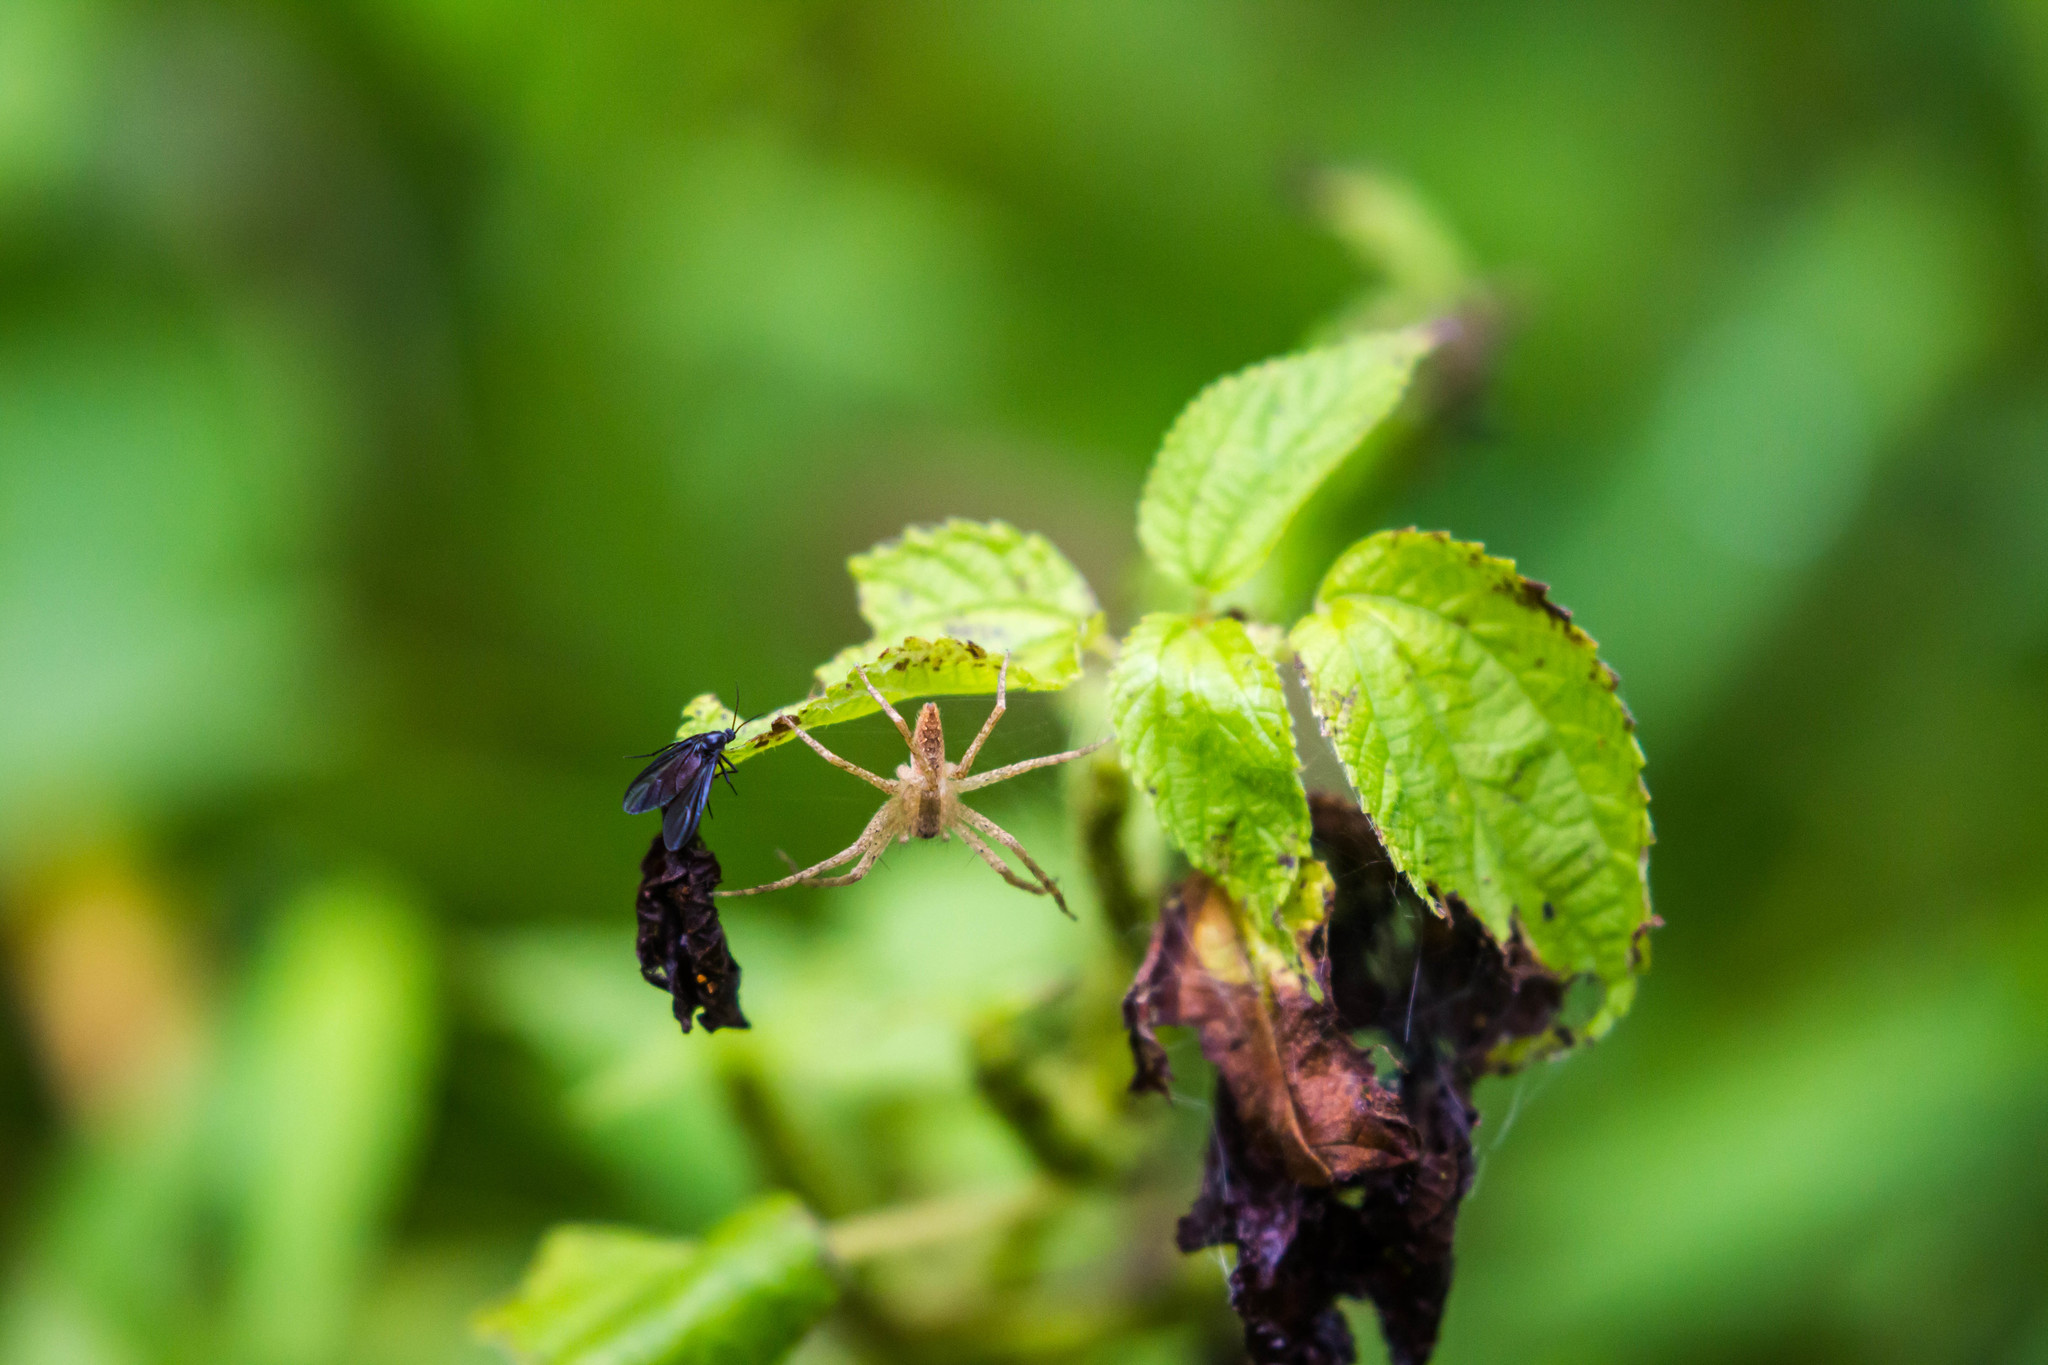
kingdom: Animalia
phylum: Arthropoda
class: Arachnida
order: Araneae
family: Pisauridae
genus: Pisaurina
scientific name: Pisaurina mira
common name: American nursery web spider
